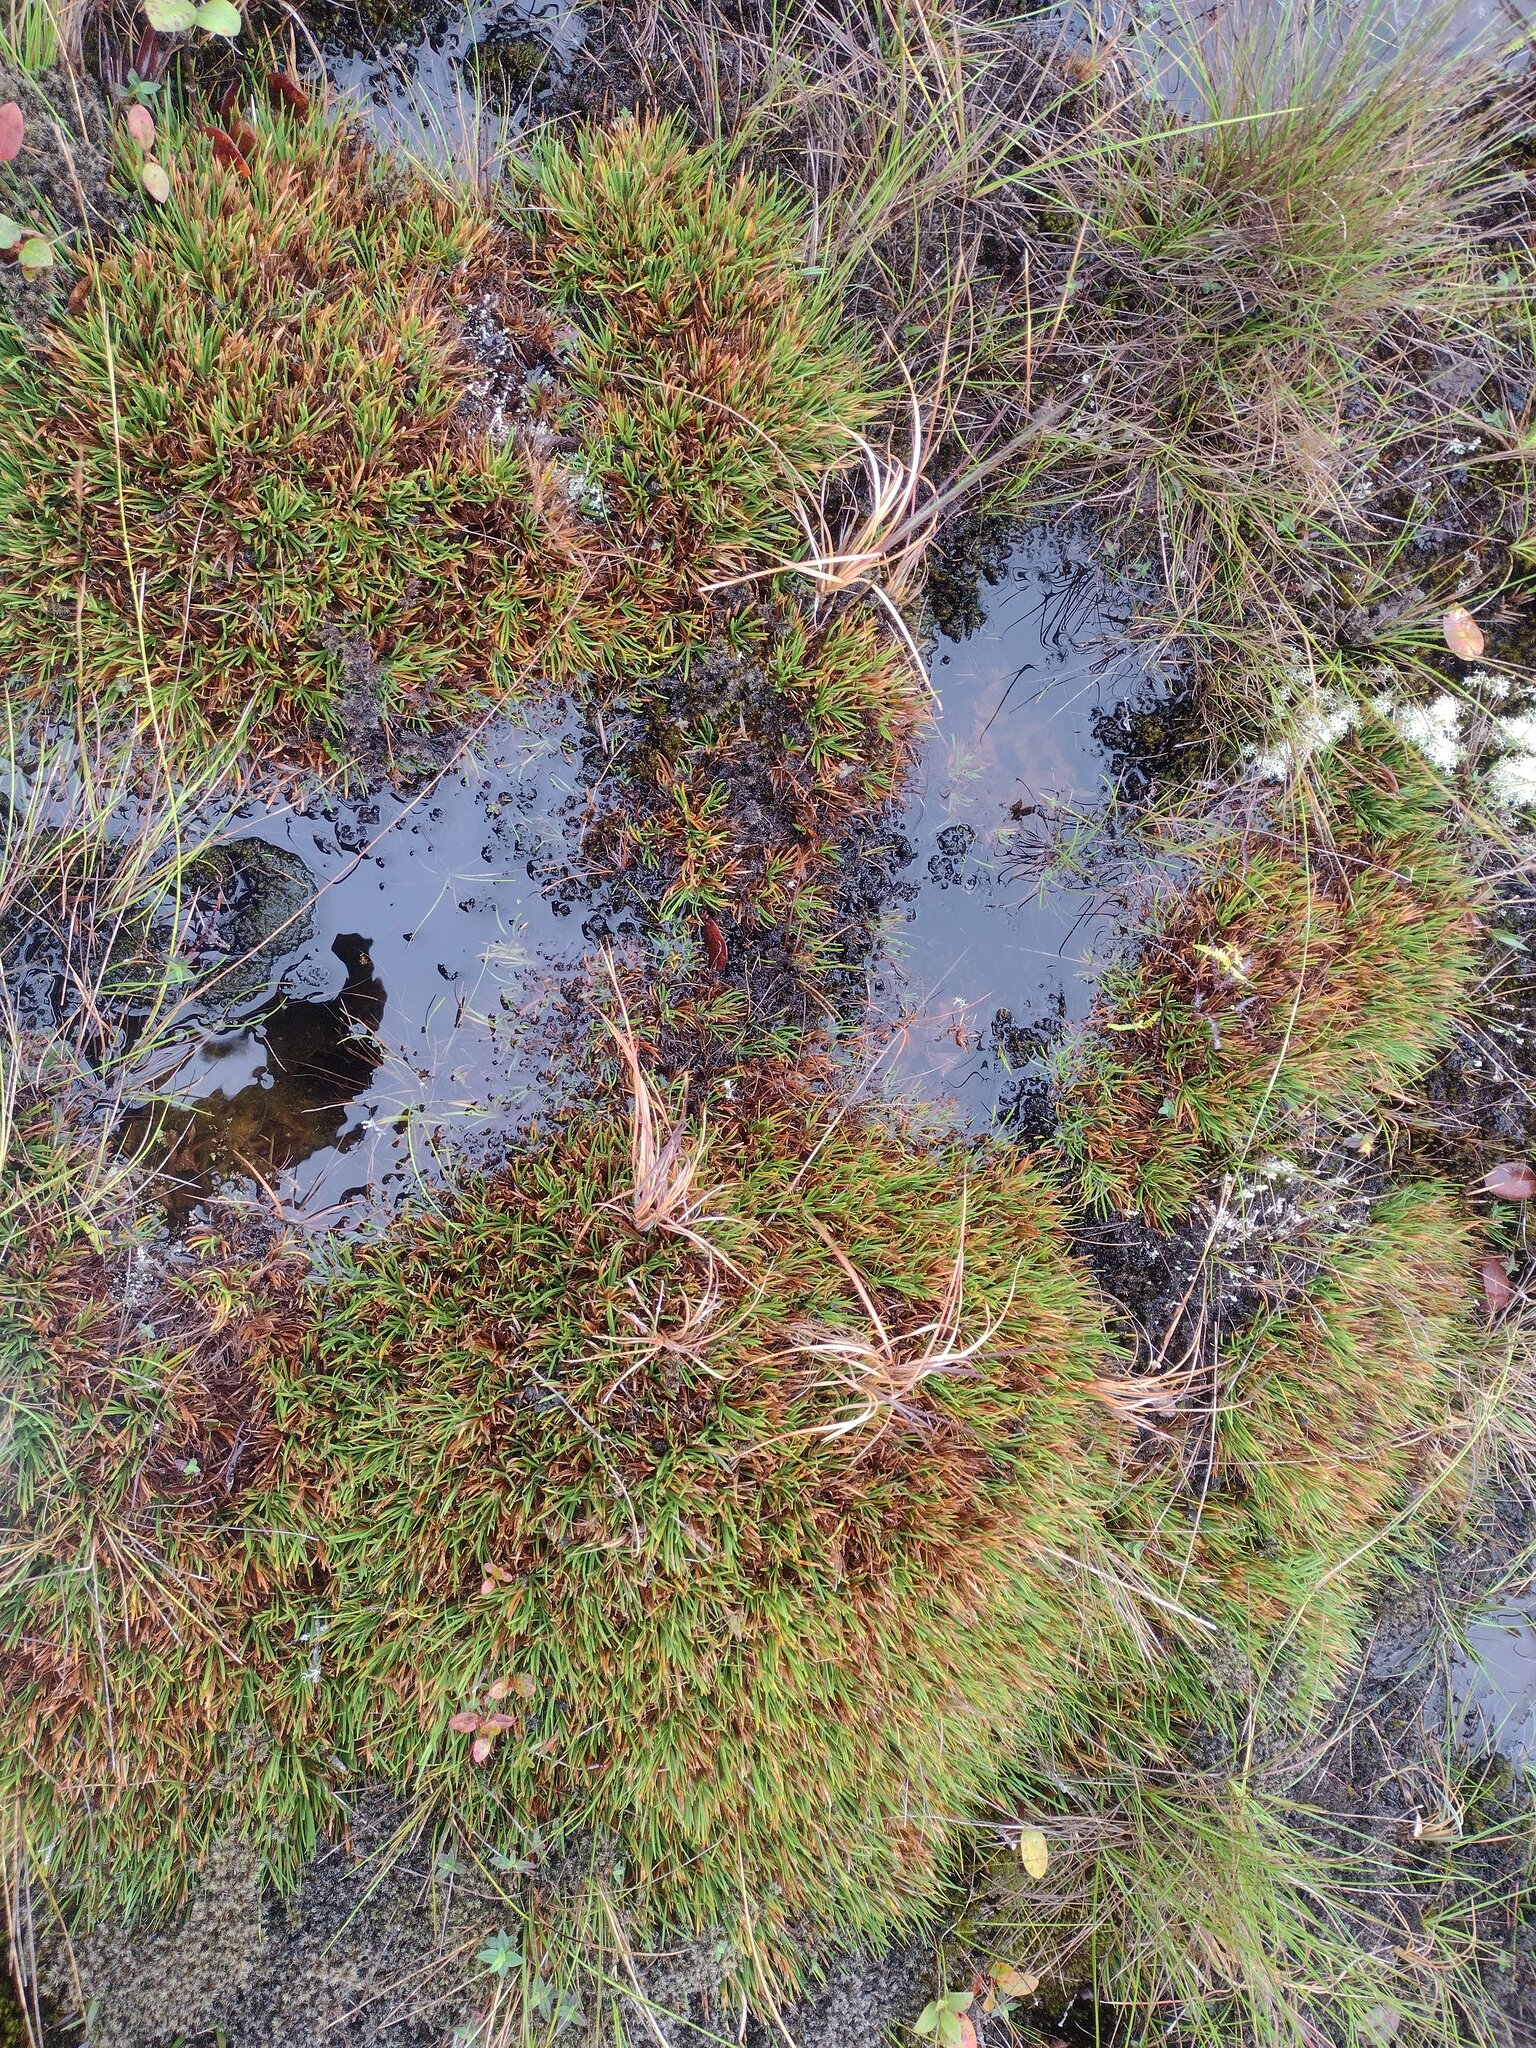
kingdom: Plantae
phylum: Tracheophyta
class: Liliopsida
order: Poales
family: Cyperaceae
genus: Oreobolus
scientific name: Oreobolus furcatus
